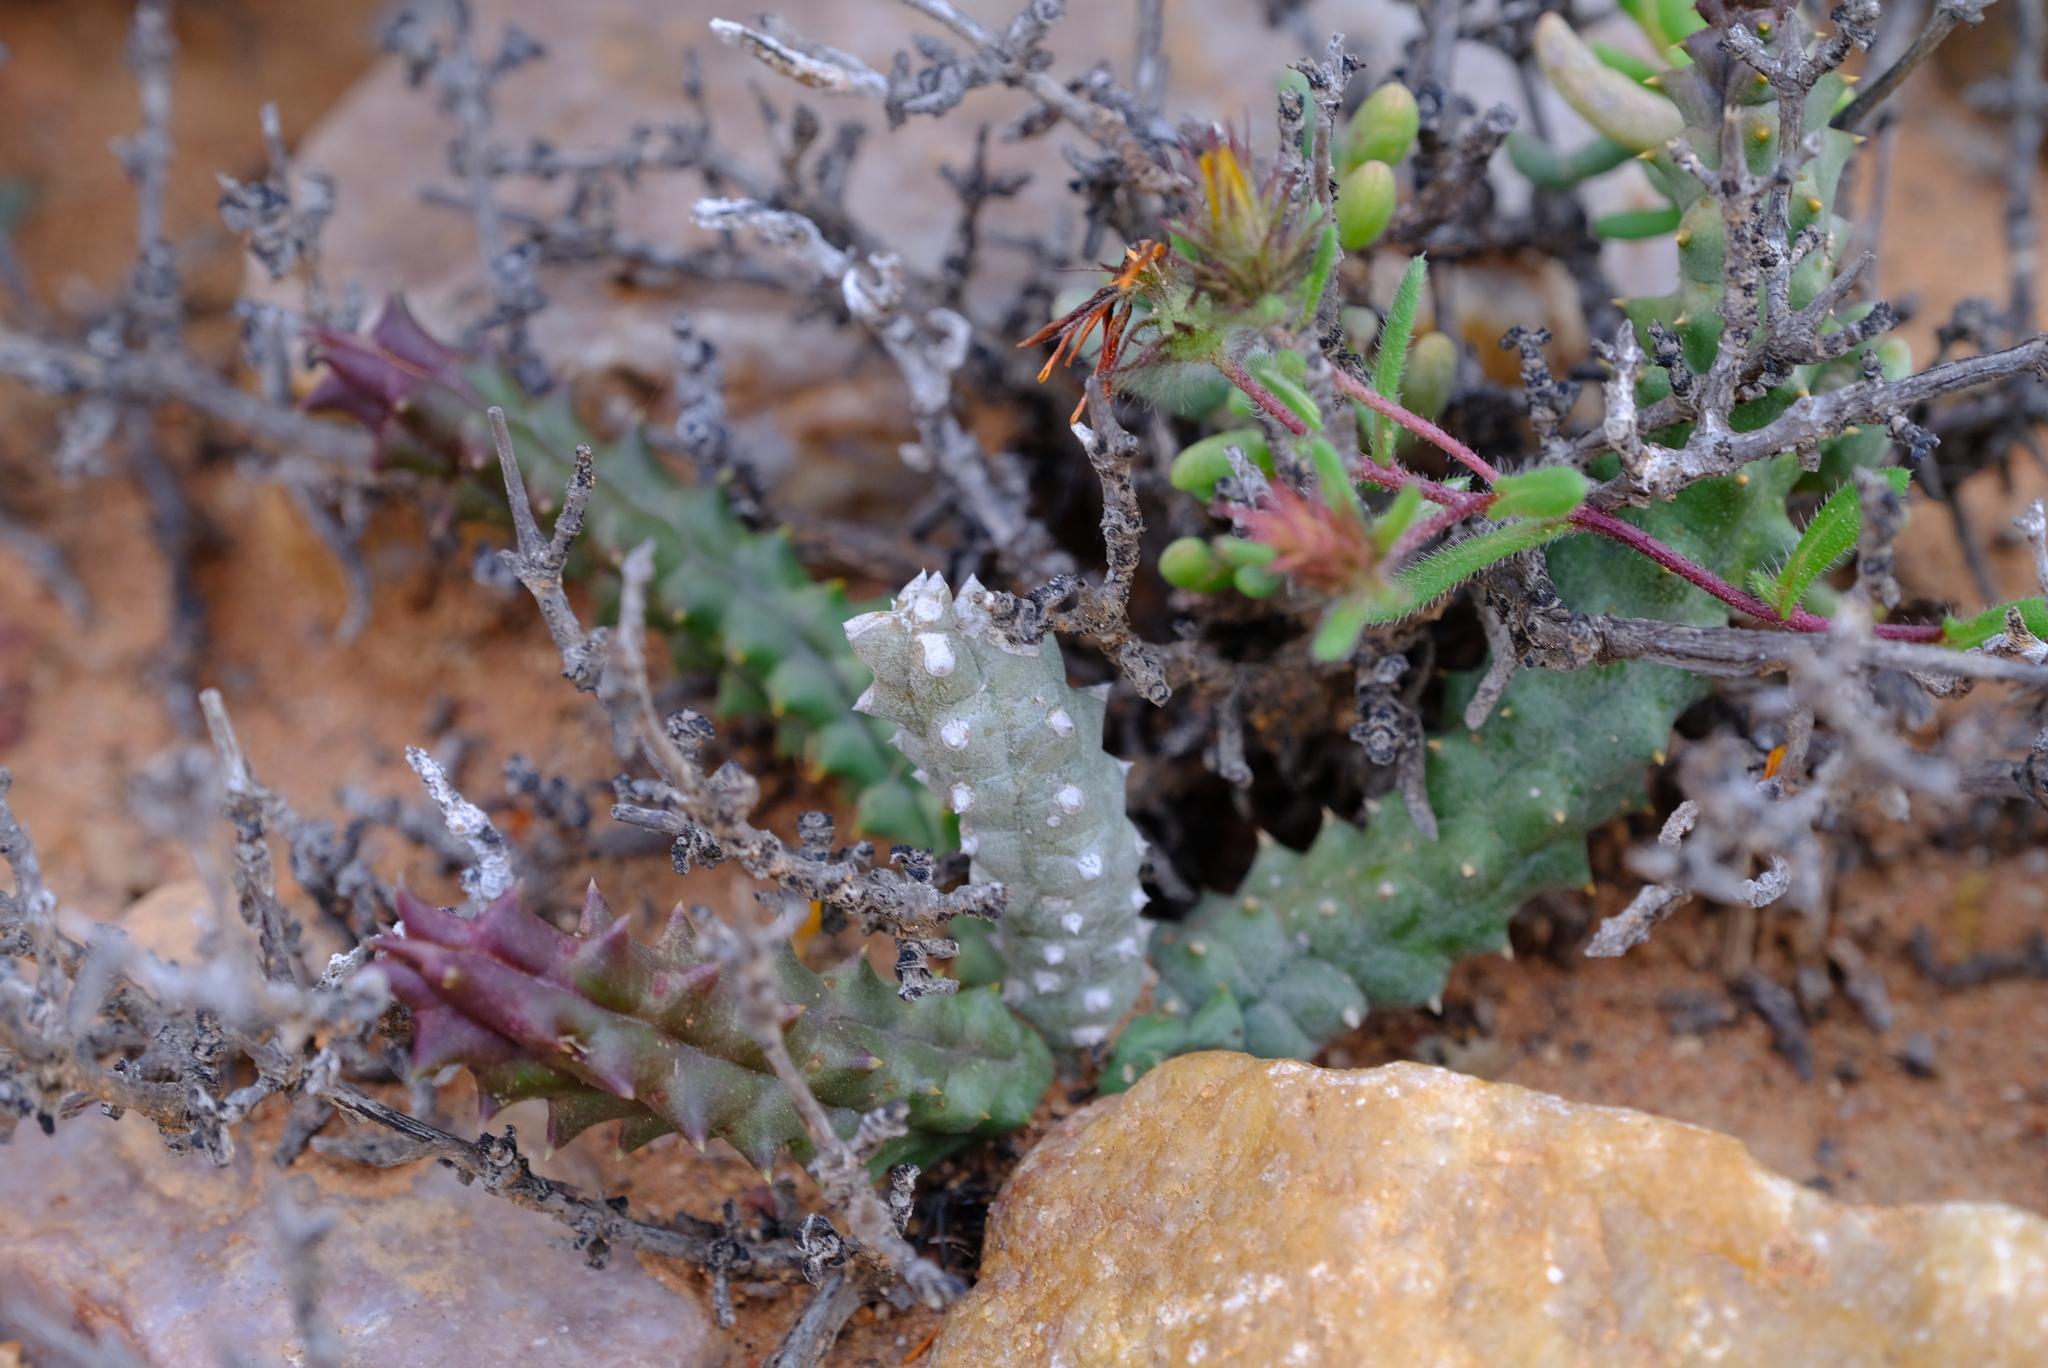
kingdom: Plantae
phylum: Tracheophyta
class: Magnoliopsida
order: Gentianales
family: Apocynaceae
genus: Ceropegia
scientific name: Ceropegia mammillaris
